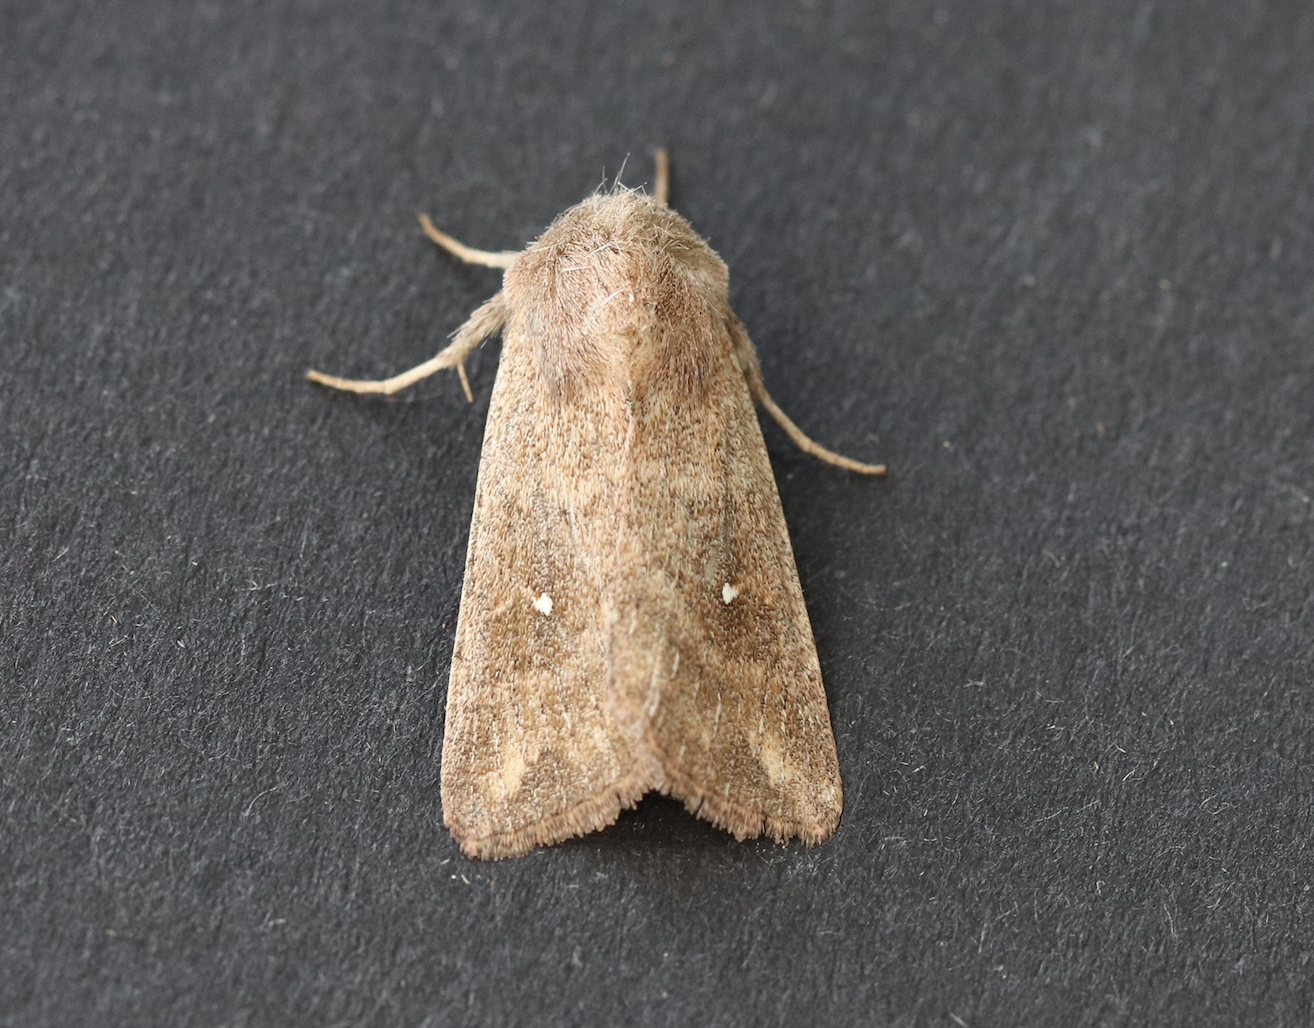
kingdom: Animalia
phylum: Arthropoda
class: Insecta
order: Lepidoptera
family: Noctuidae
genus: Mythimna
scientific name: Mythimna albipuncta
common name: White-point
